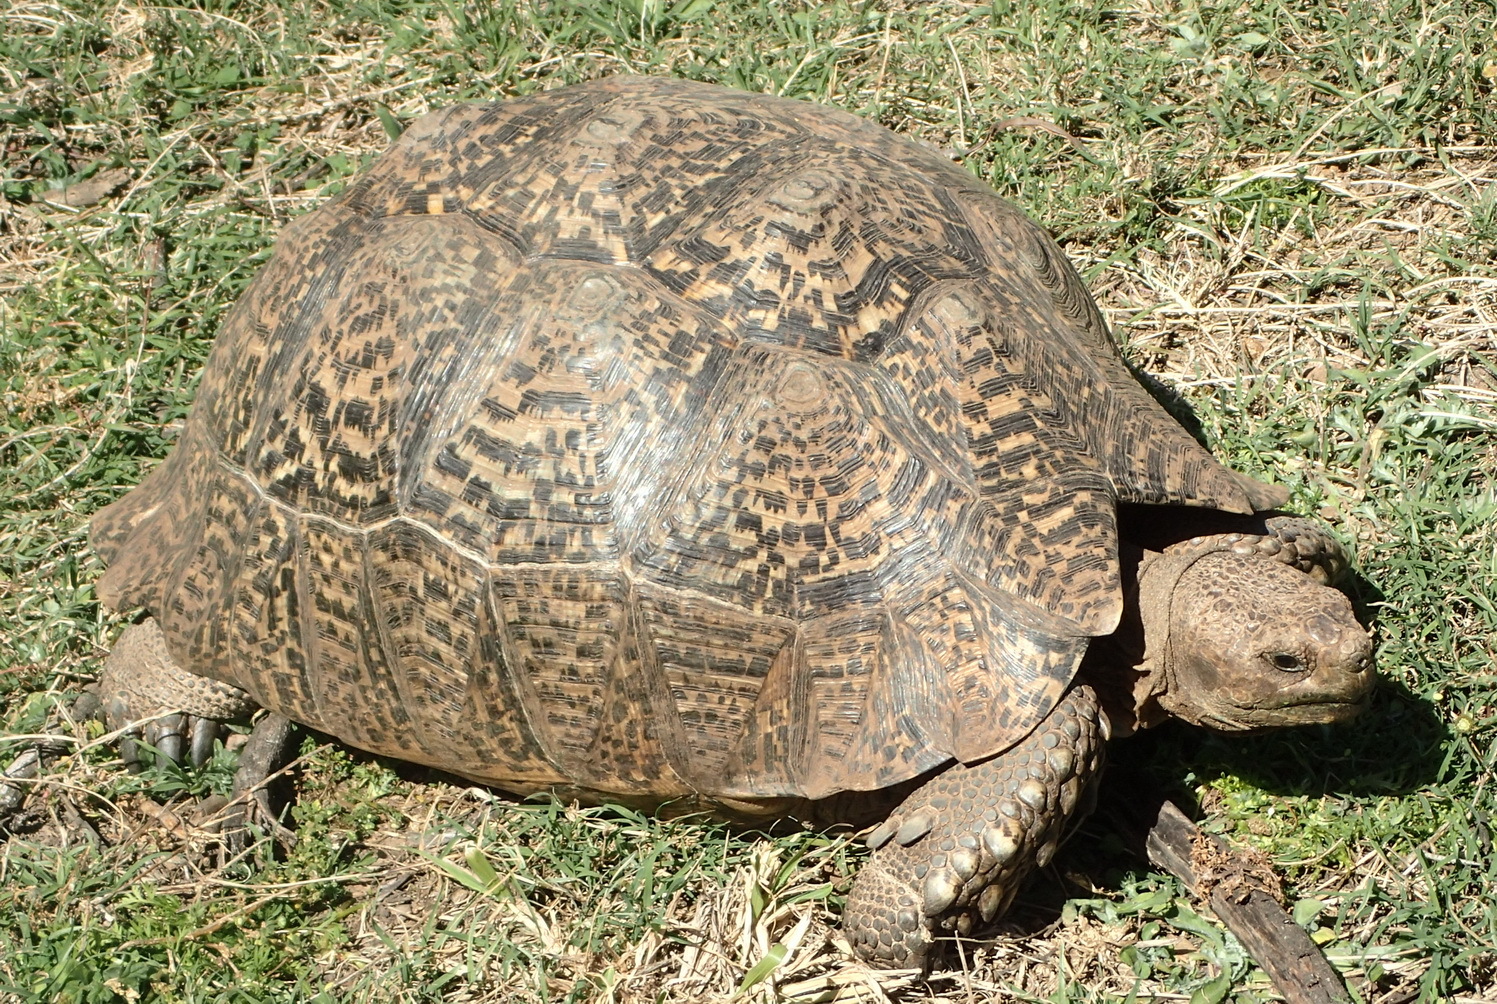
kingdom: Animalia
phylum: Chordata
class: Testudines
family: Testudinidae
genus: Stigmochelys
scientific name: Stigmochelys pardalis
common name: Leopard tortoise
